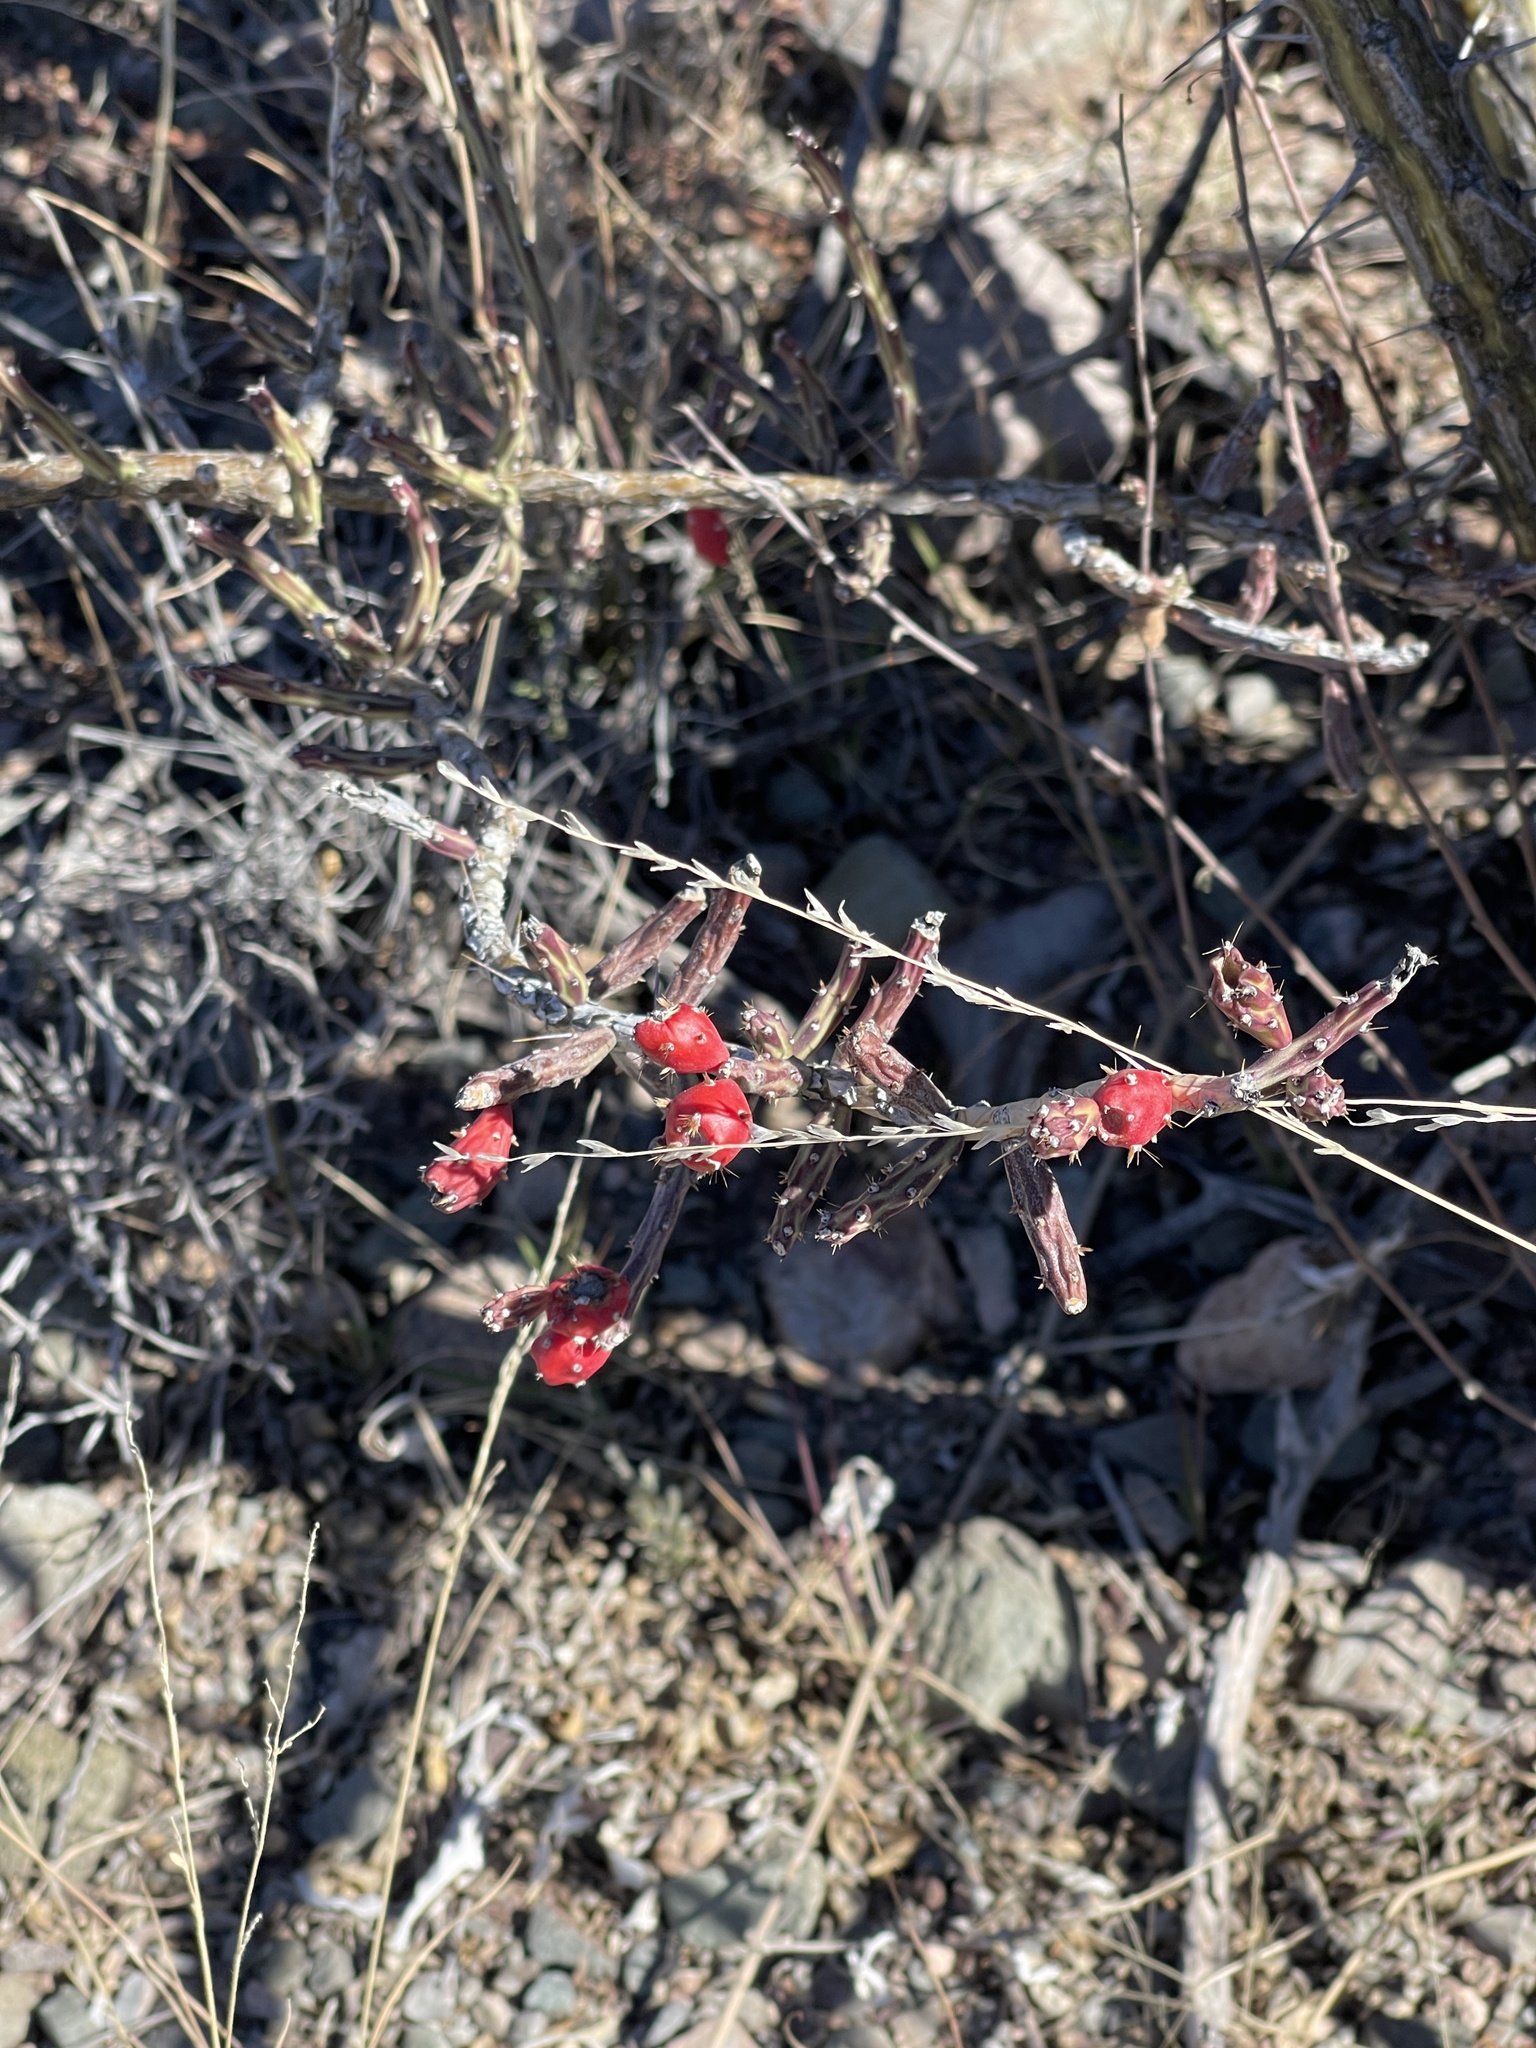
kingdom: Plantae
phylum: Tracheophyta
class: Magnoliopsida
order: Caryophyllales
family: Cactaceae
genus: Cylindropuntia
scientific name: Cylindropuntia leptocaulis
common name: Christmas cactus
